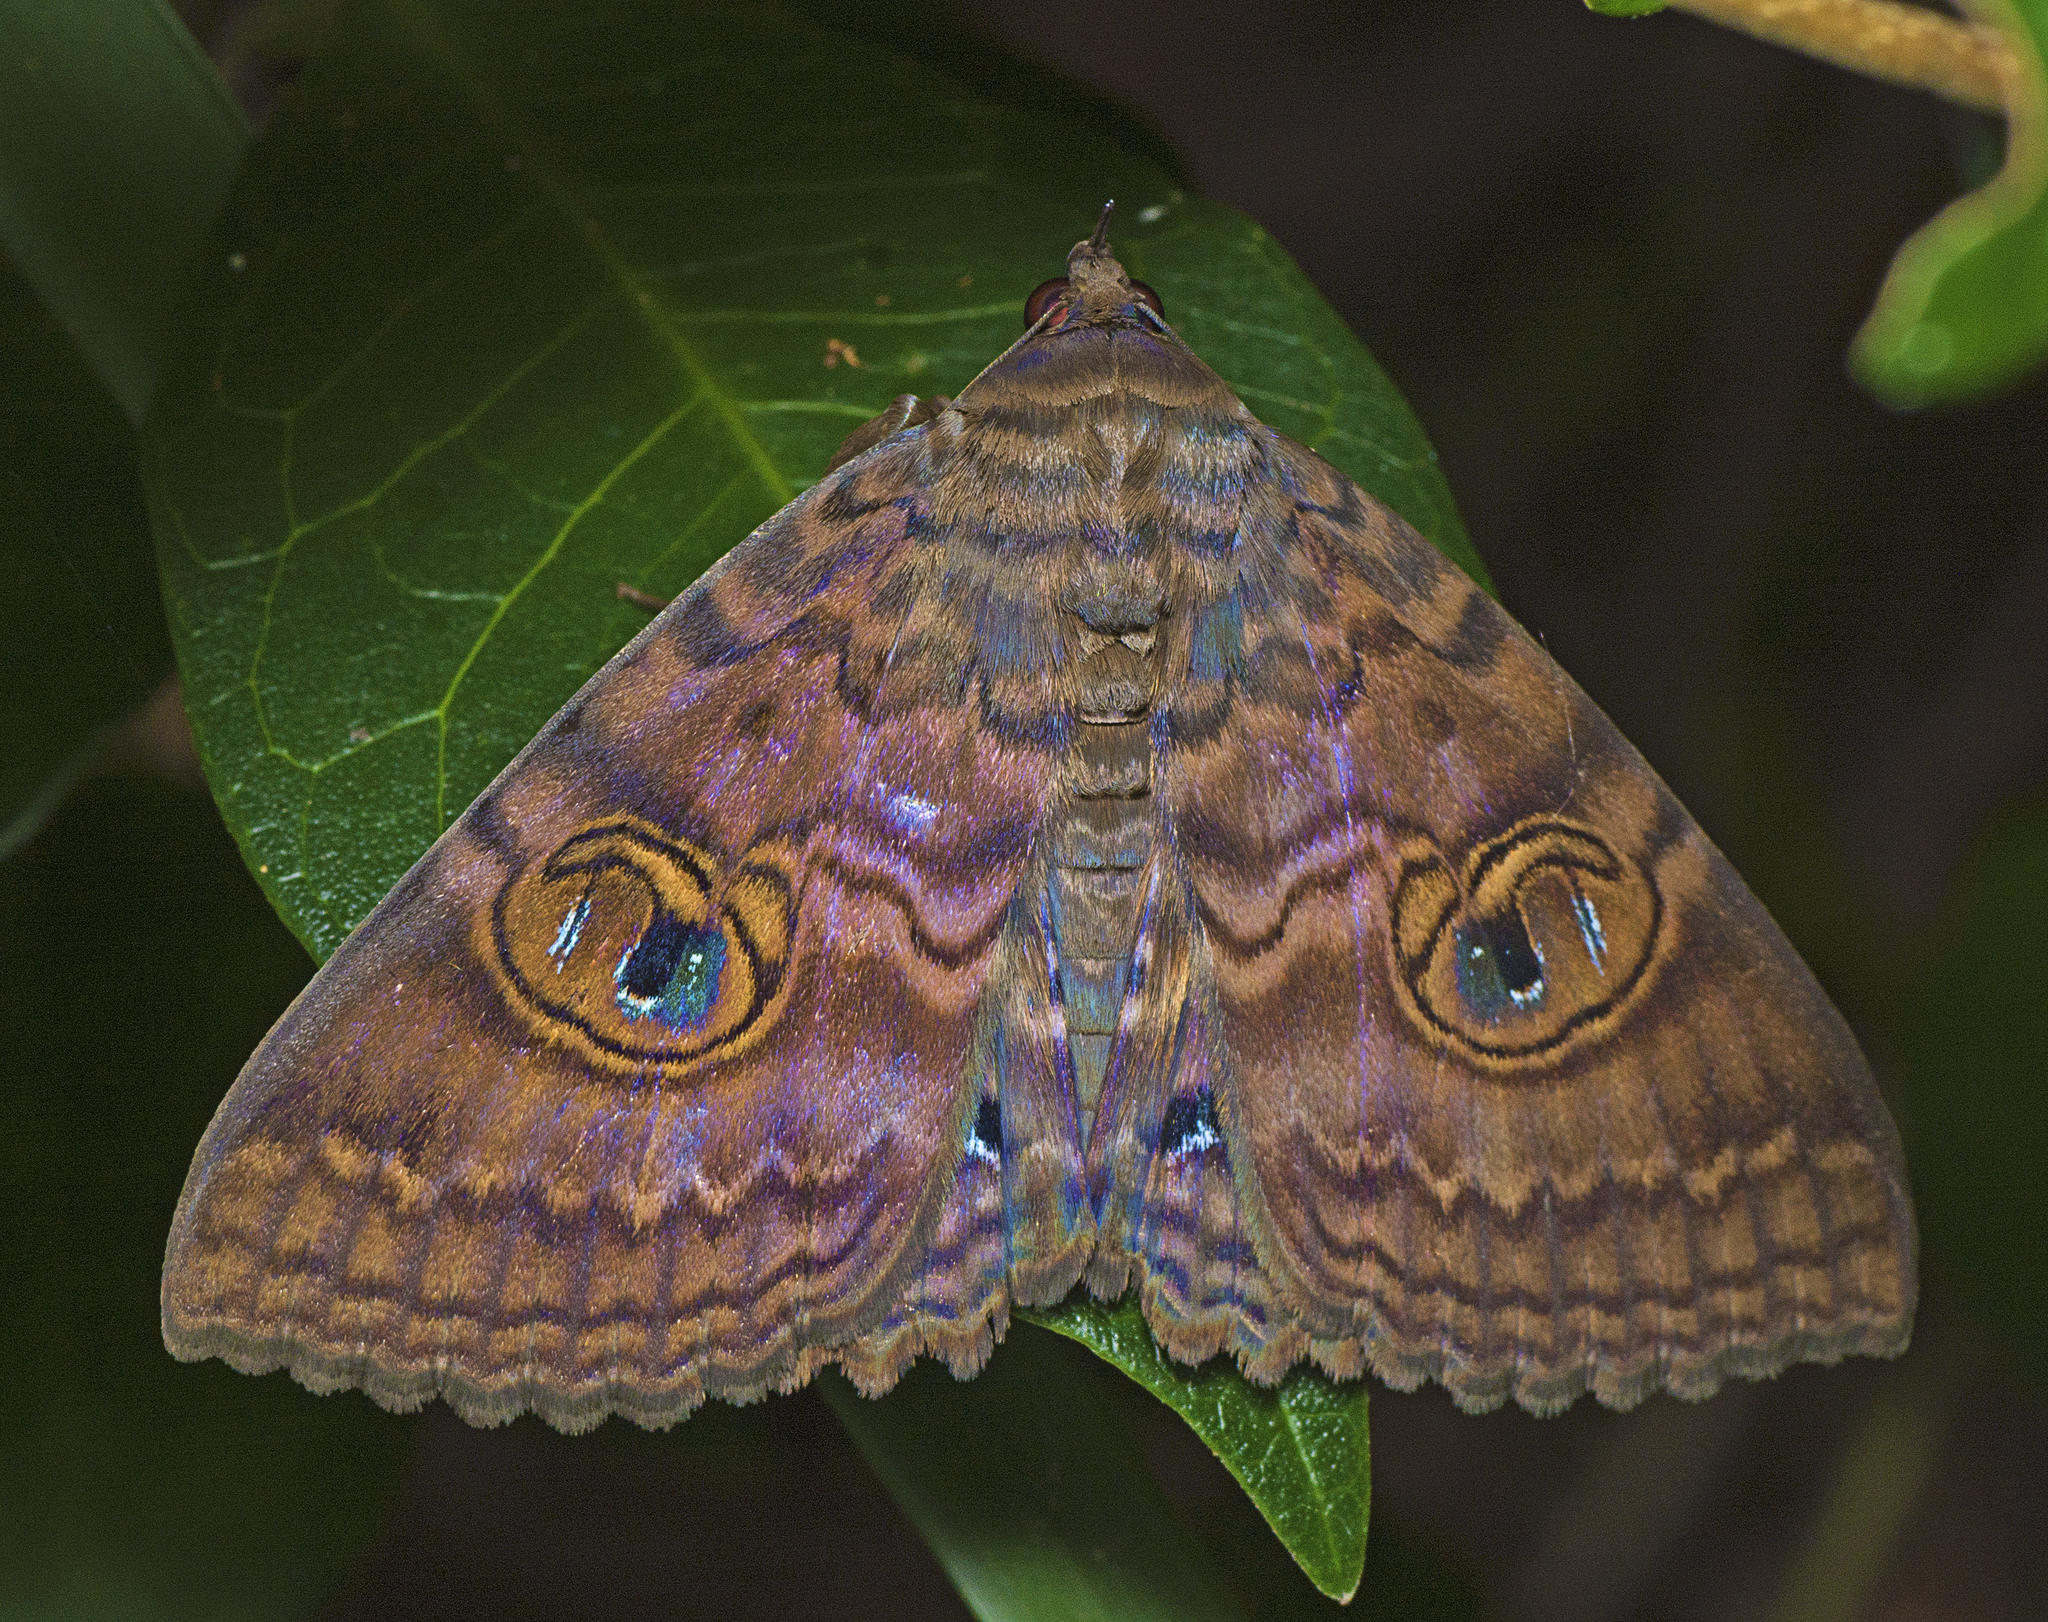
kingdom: Animalia
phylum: Arthropoda
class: Insecta
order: Lepidoptera
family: Erebidae
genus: Speiredonia
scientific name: Speiredonia spectans
